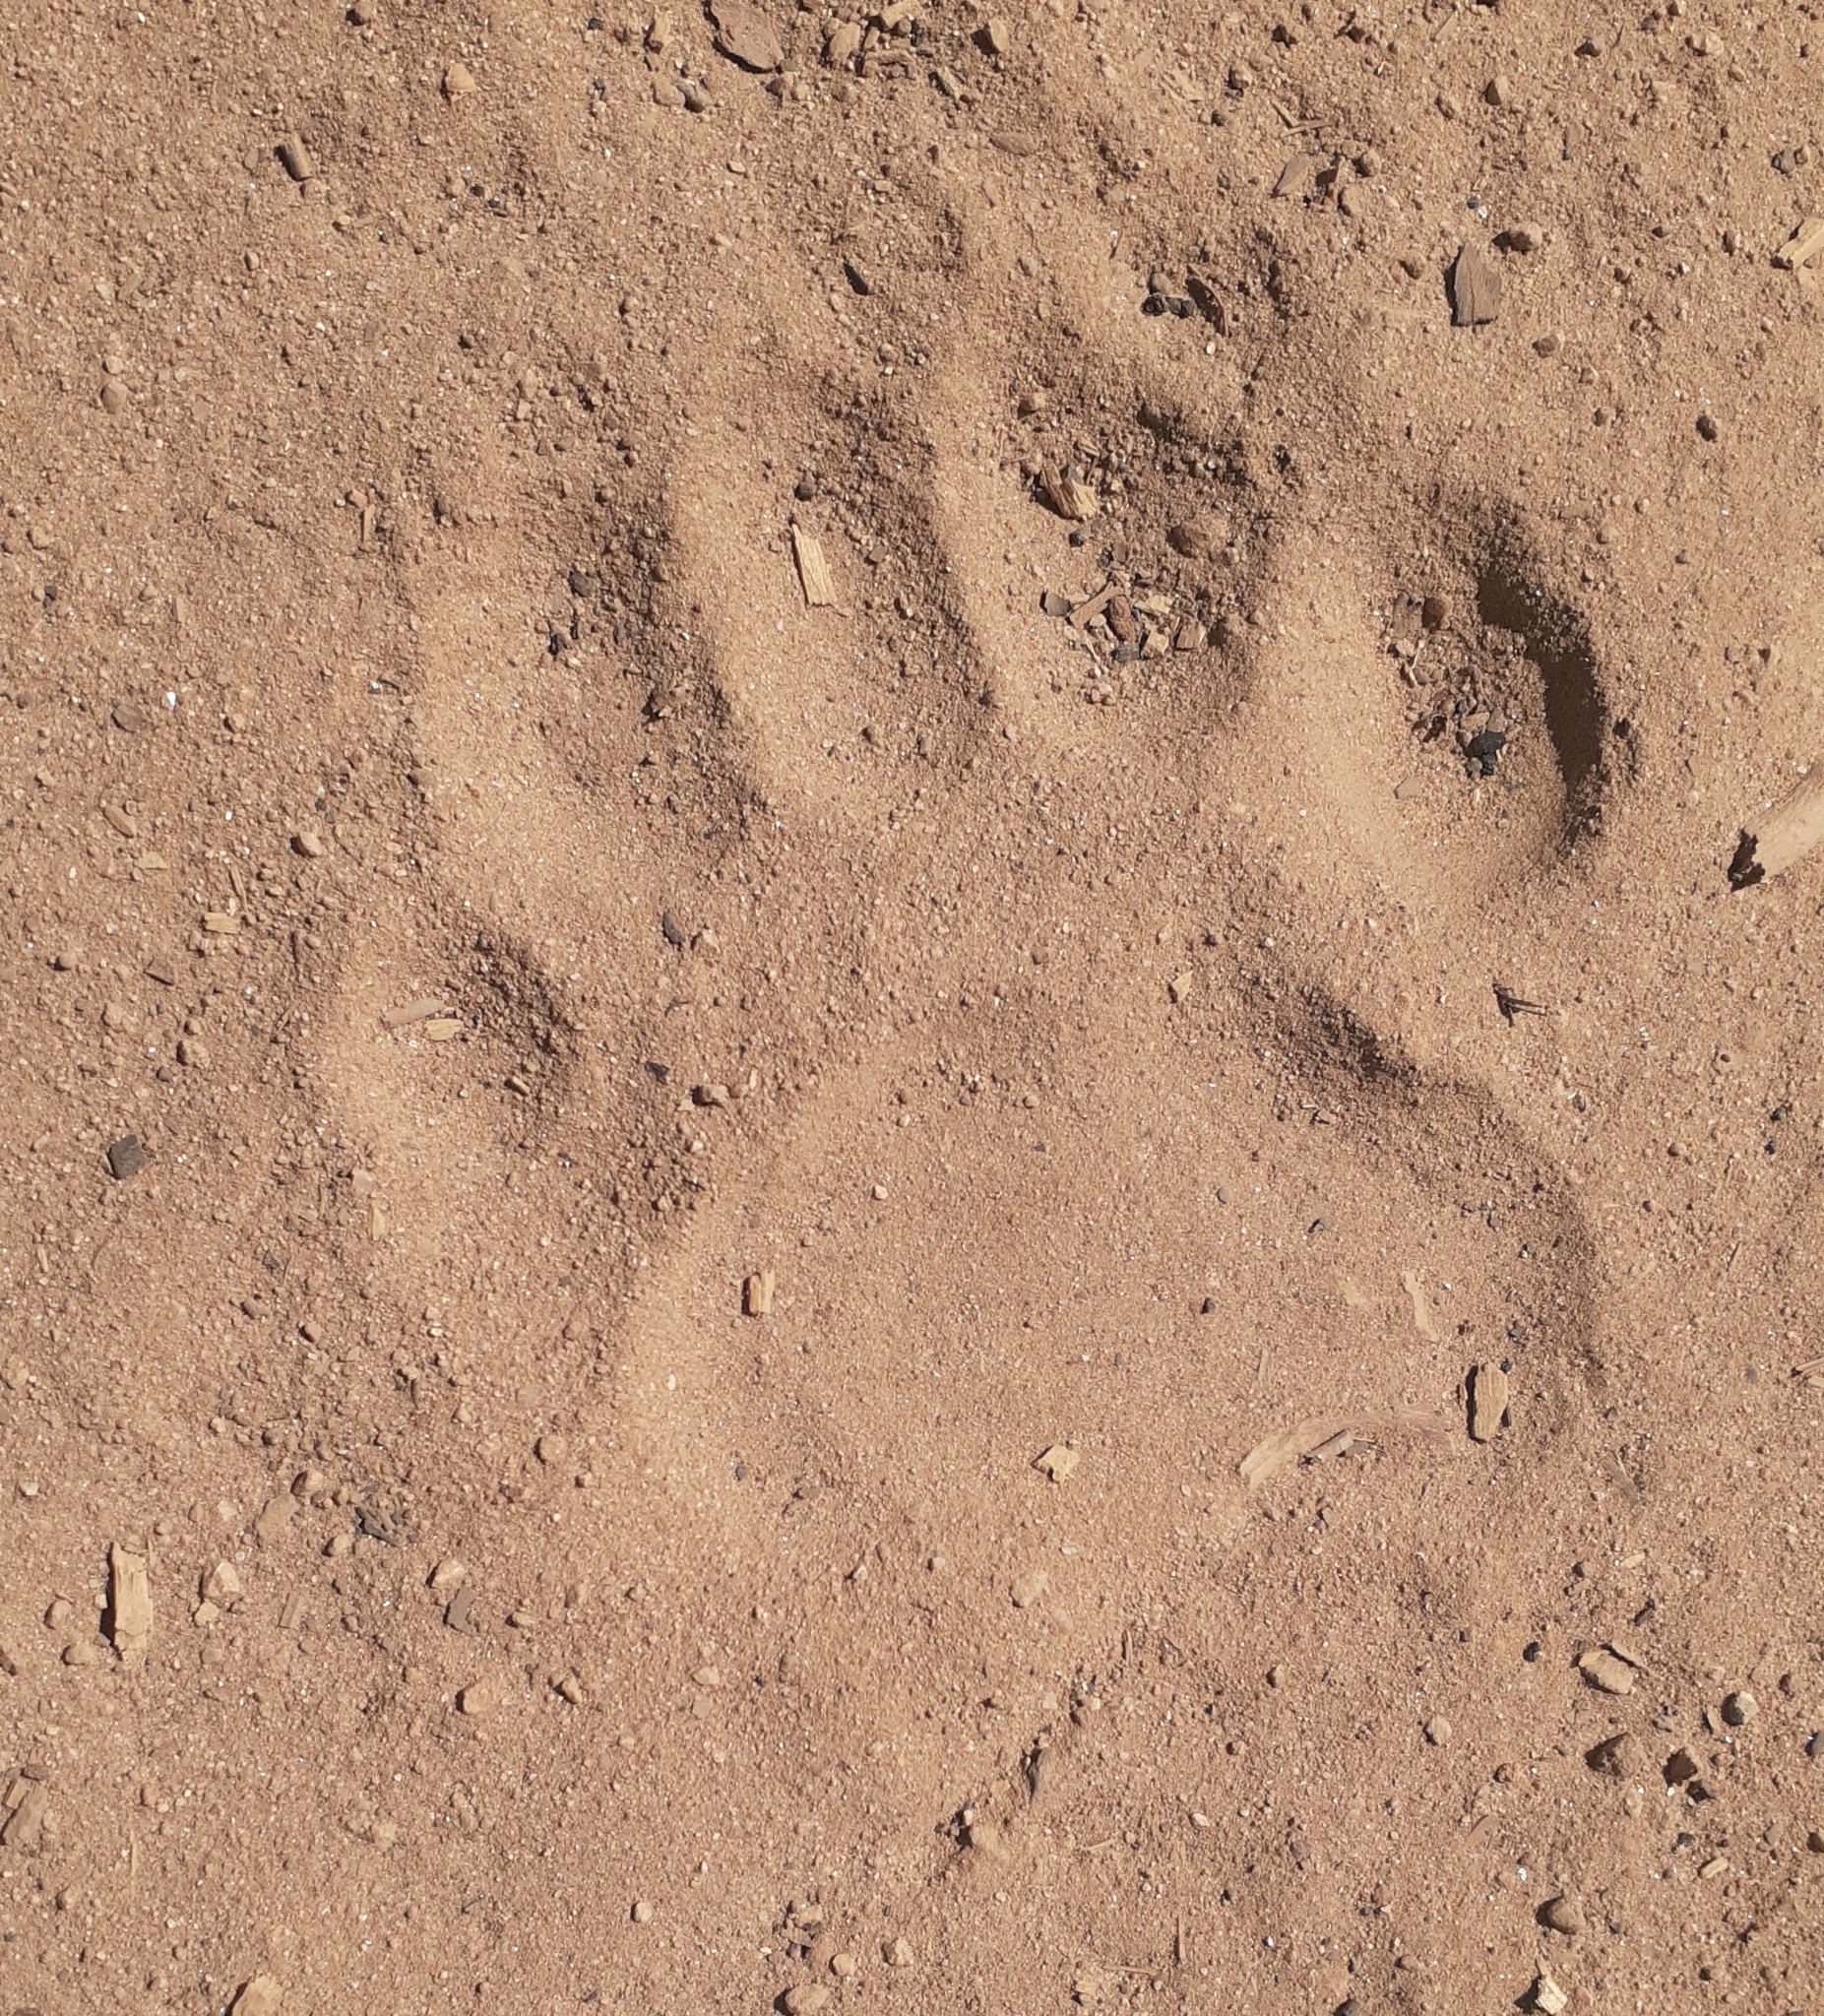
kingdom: Animalia
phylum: Chordata
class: Mammalia
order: Carnivora
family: Ursidae
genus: Ursus
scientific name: Ursus americanus
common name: American black bear
